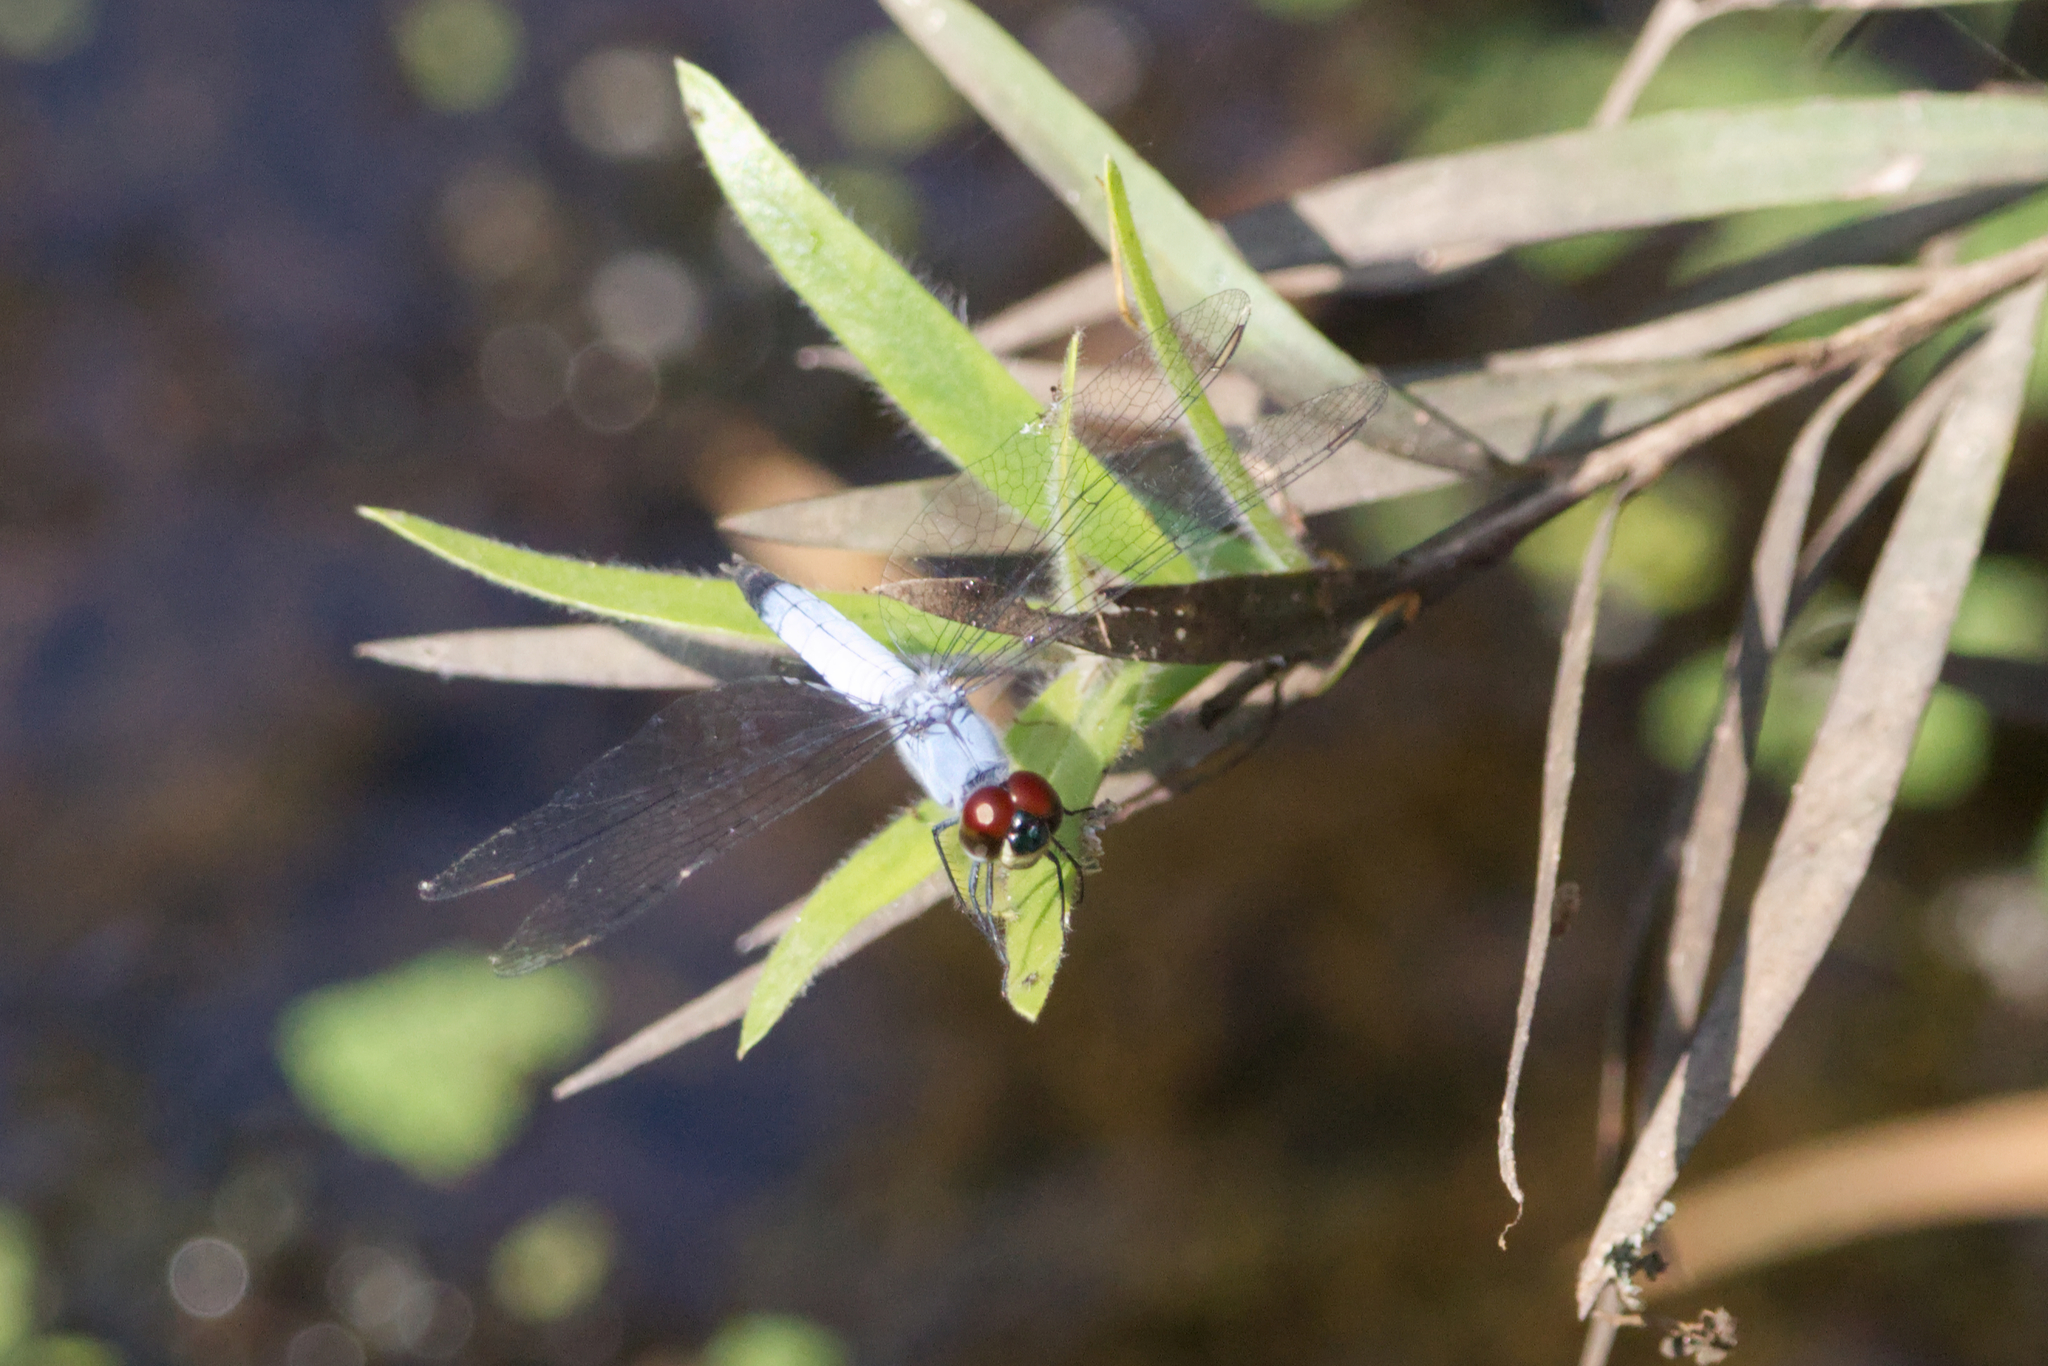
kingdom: Animalia
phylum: Arthropoda
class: Insecta
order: Odonata
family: Libellulidae
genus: Brachydiplax
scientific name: Brachydiplax denticauda
